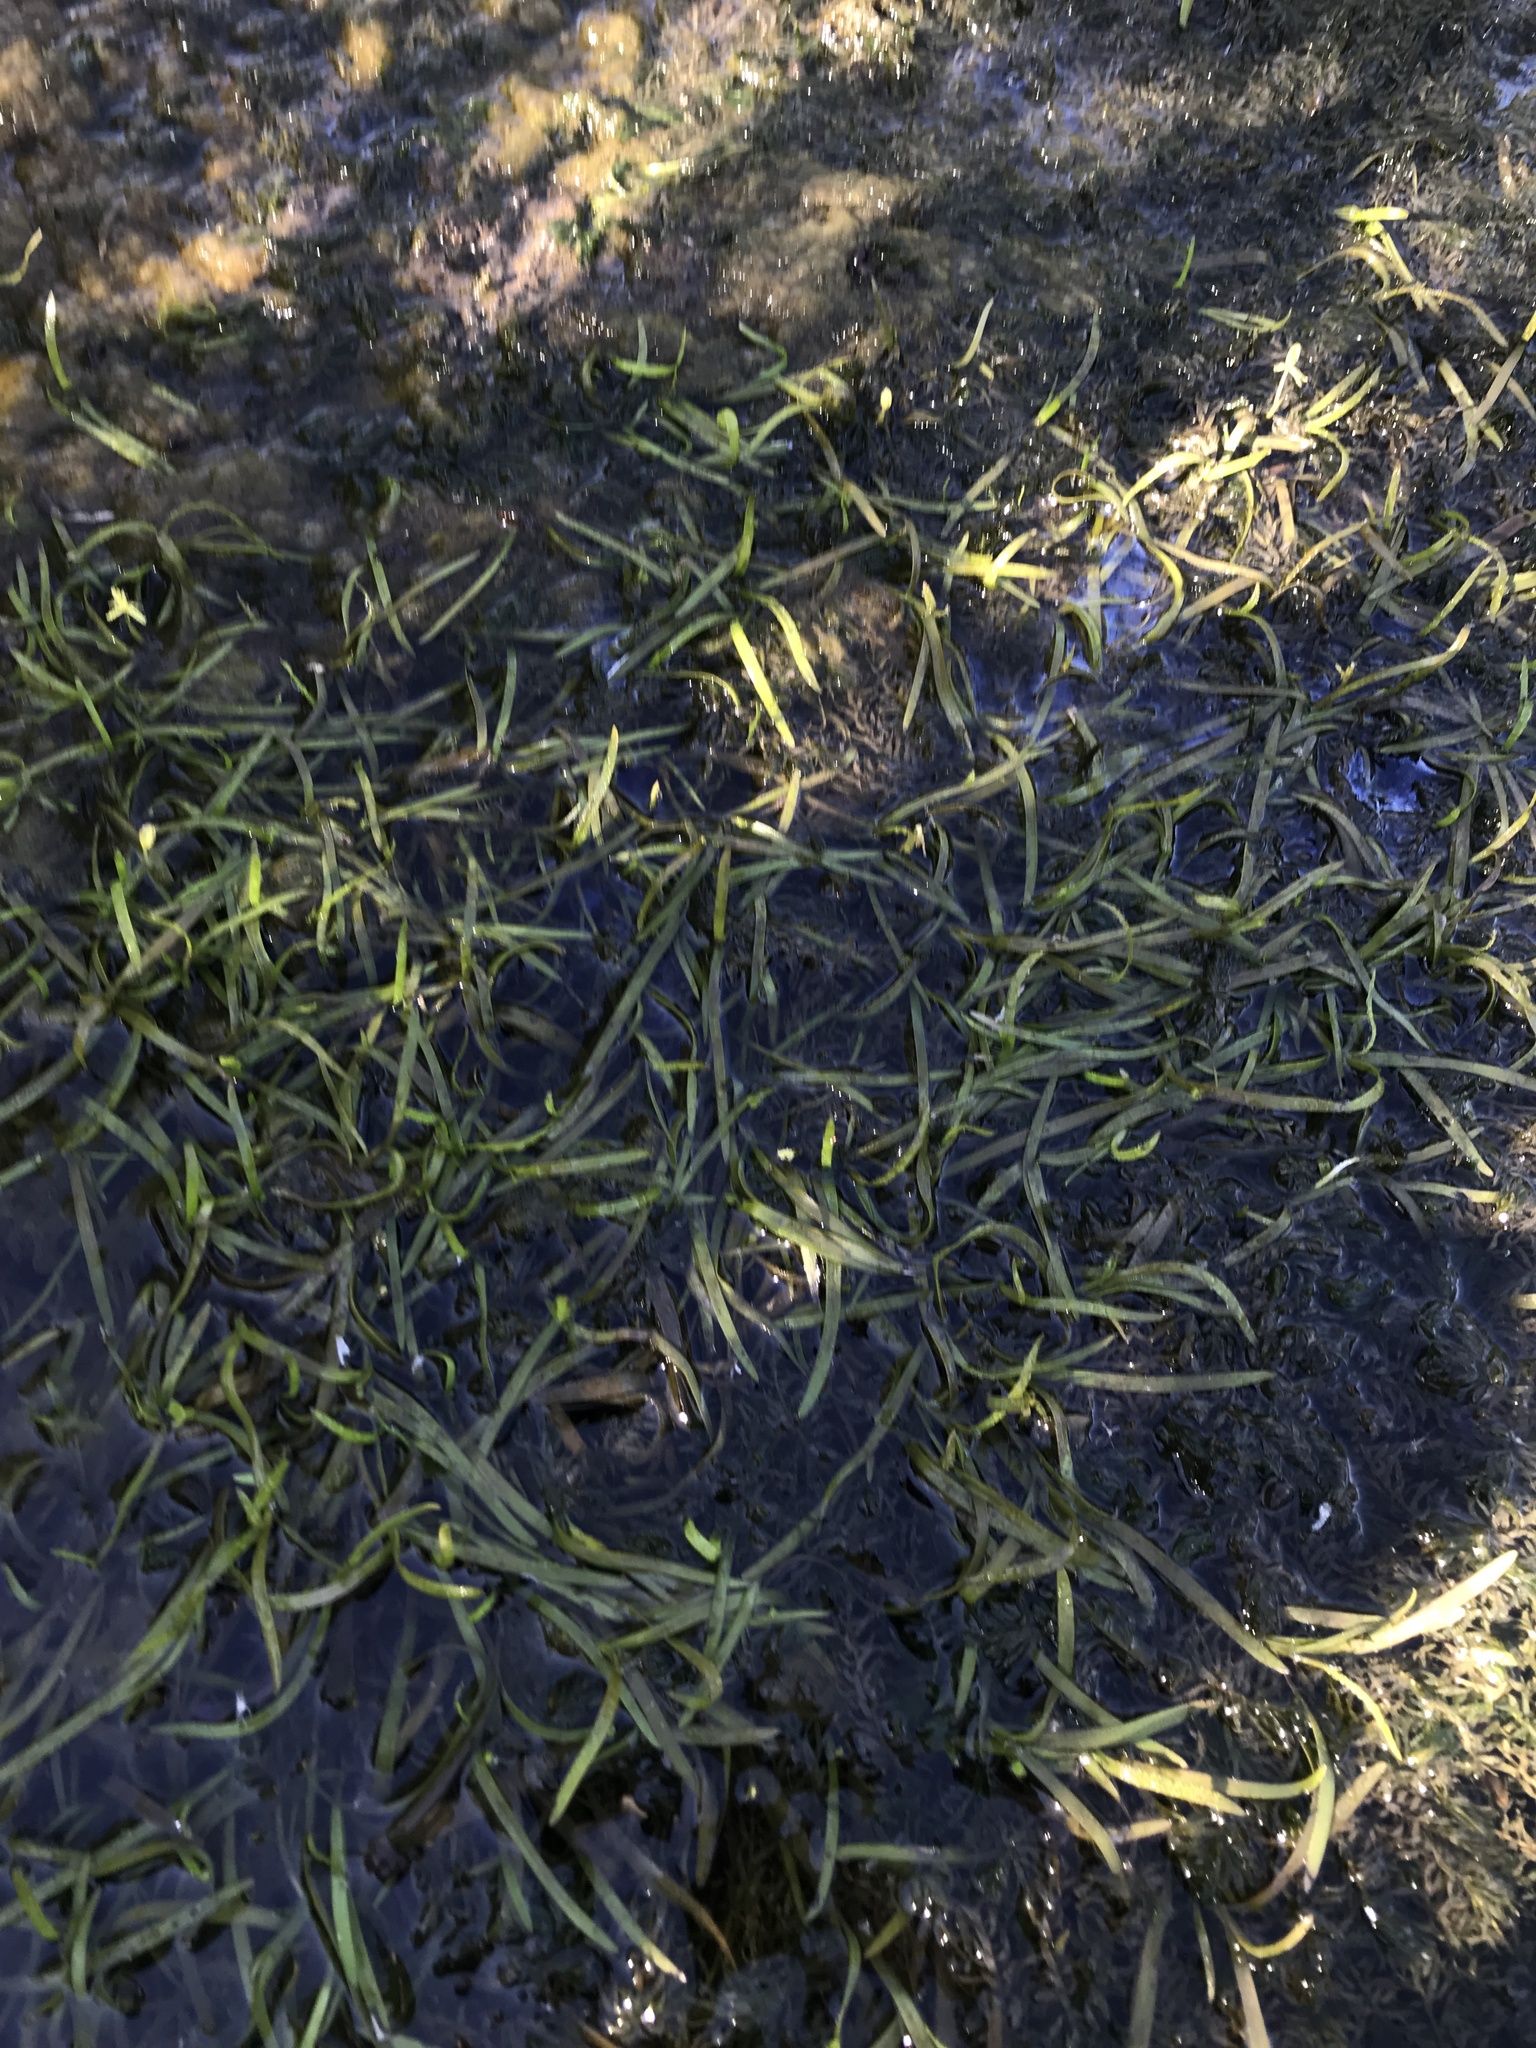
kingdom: Plantae
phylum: Tracheophyta
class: Liliopsida
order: Commelinales
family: Pontederiaceae
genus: Heteranthera
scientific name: Heteranthera dubia
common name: Grass-leaved mud plantain
